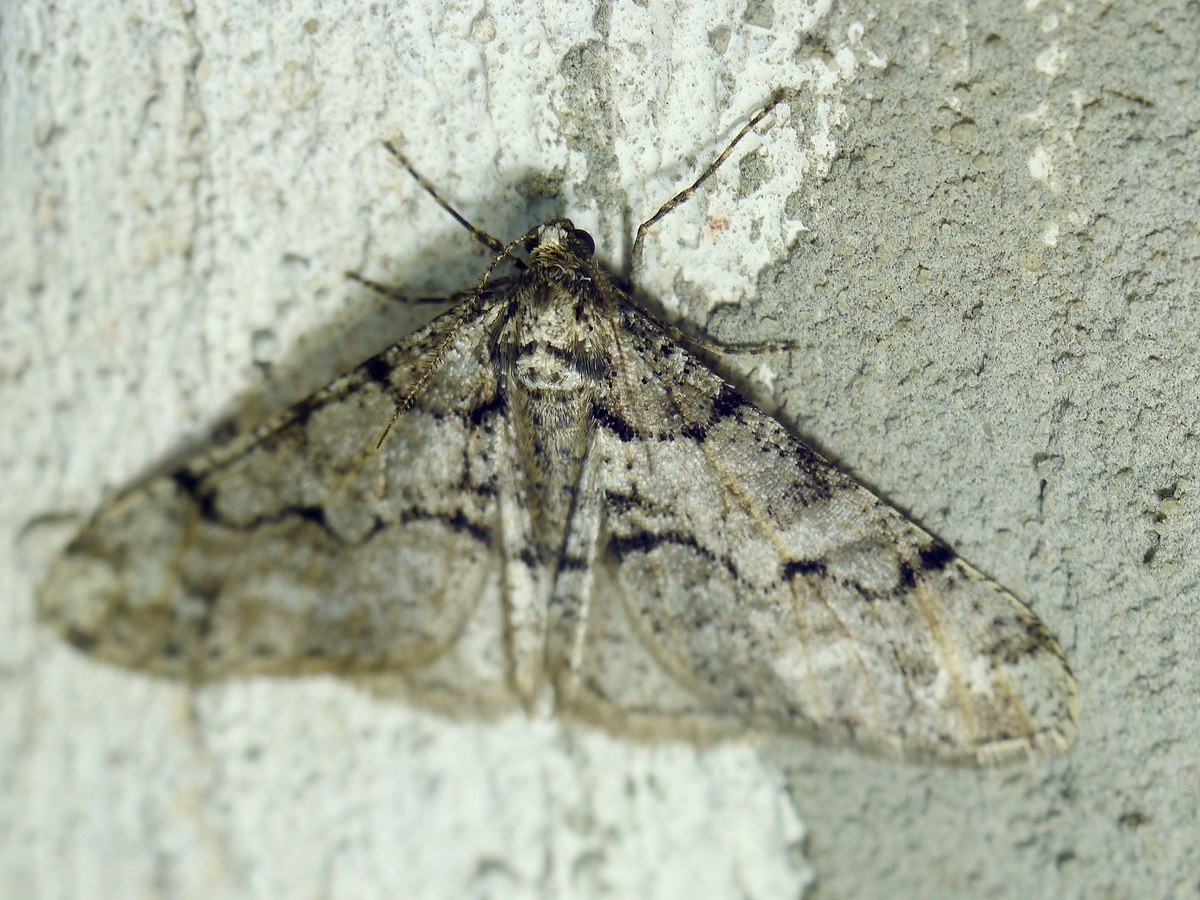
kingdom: Animalia
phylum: Arthropoda
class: Insecta
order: Lepidoptera
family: Geometridae
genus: Agriopis
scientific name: Agriopis leucophaearia
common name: Spring usher
